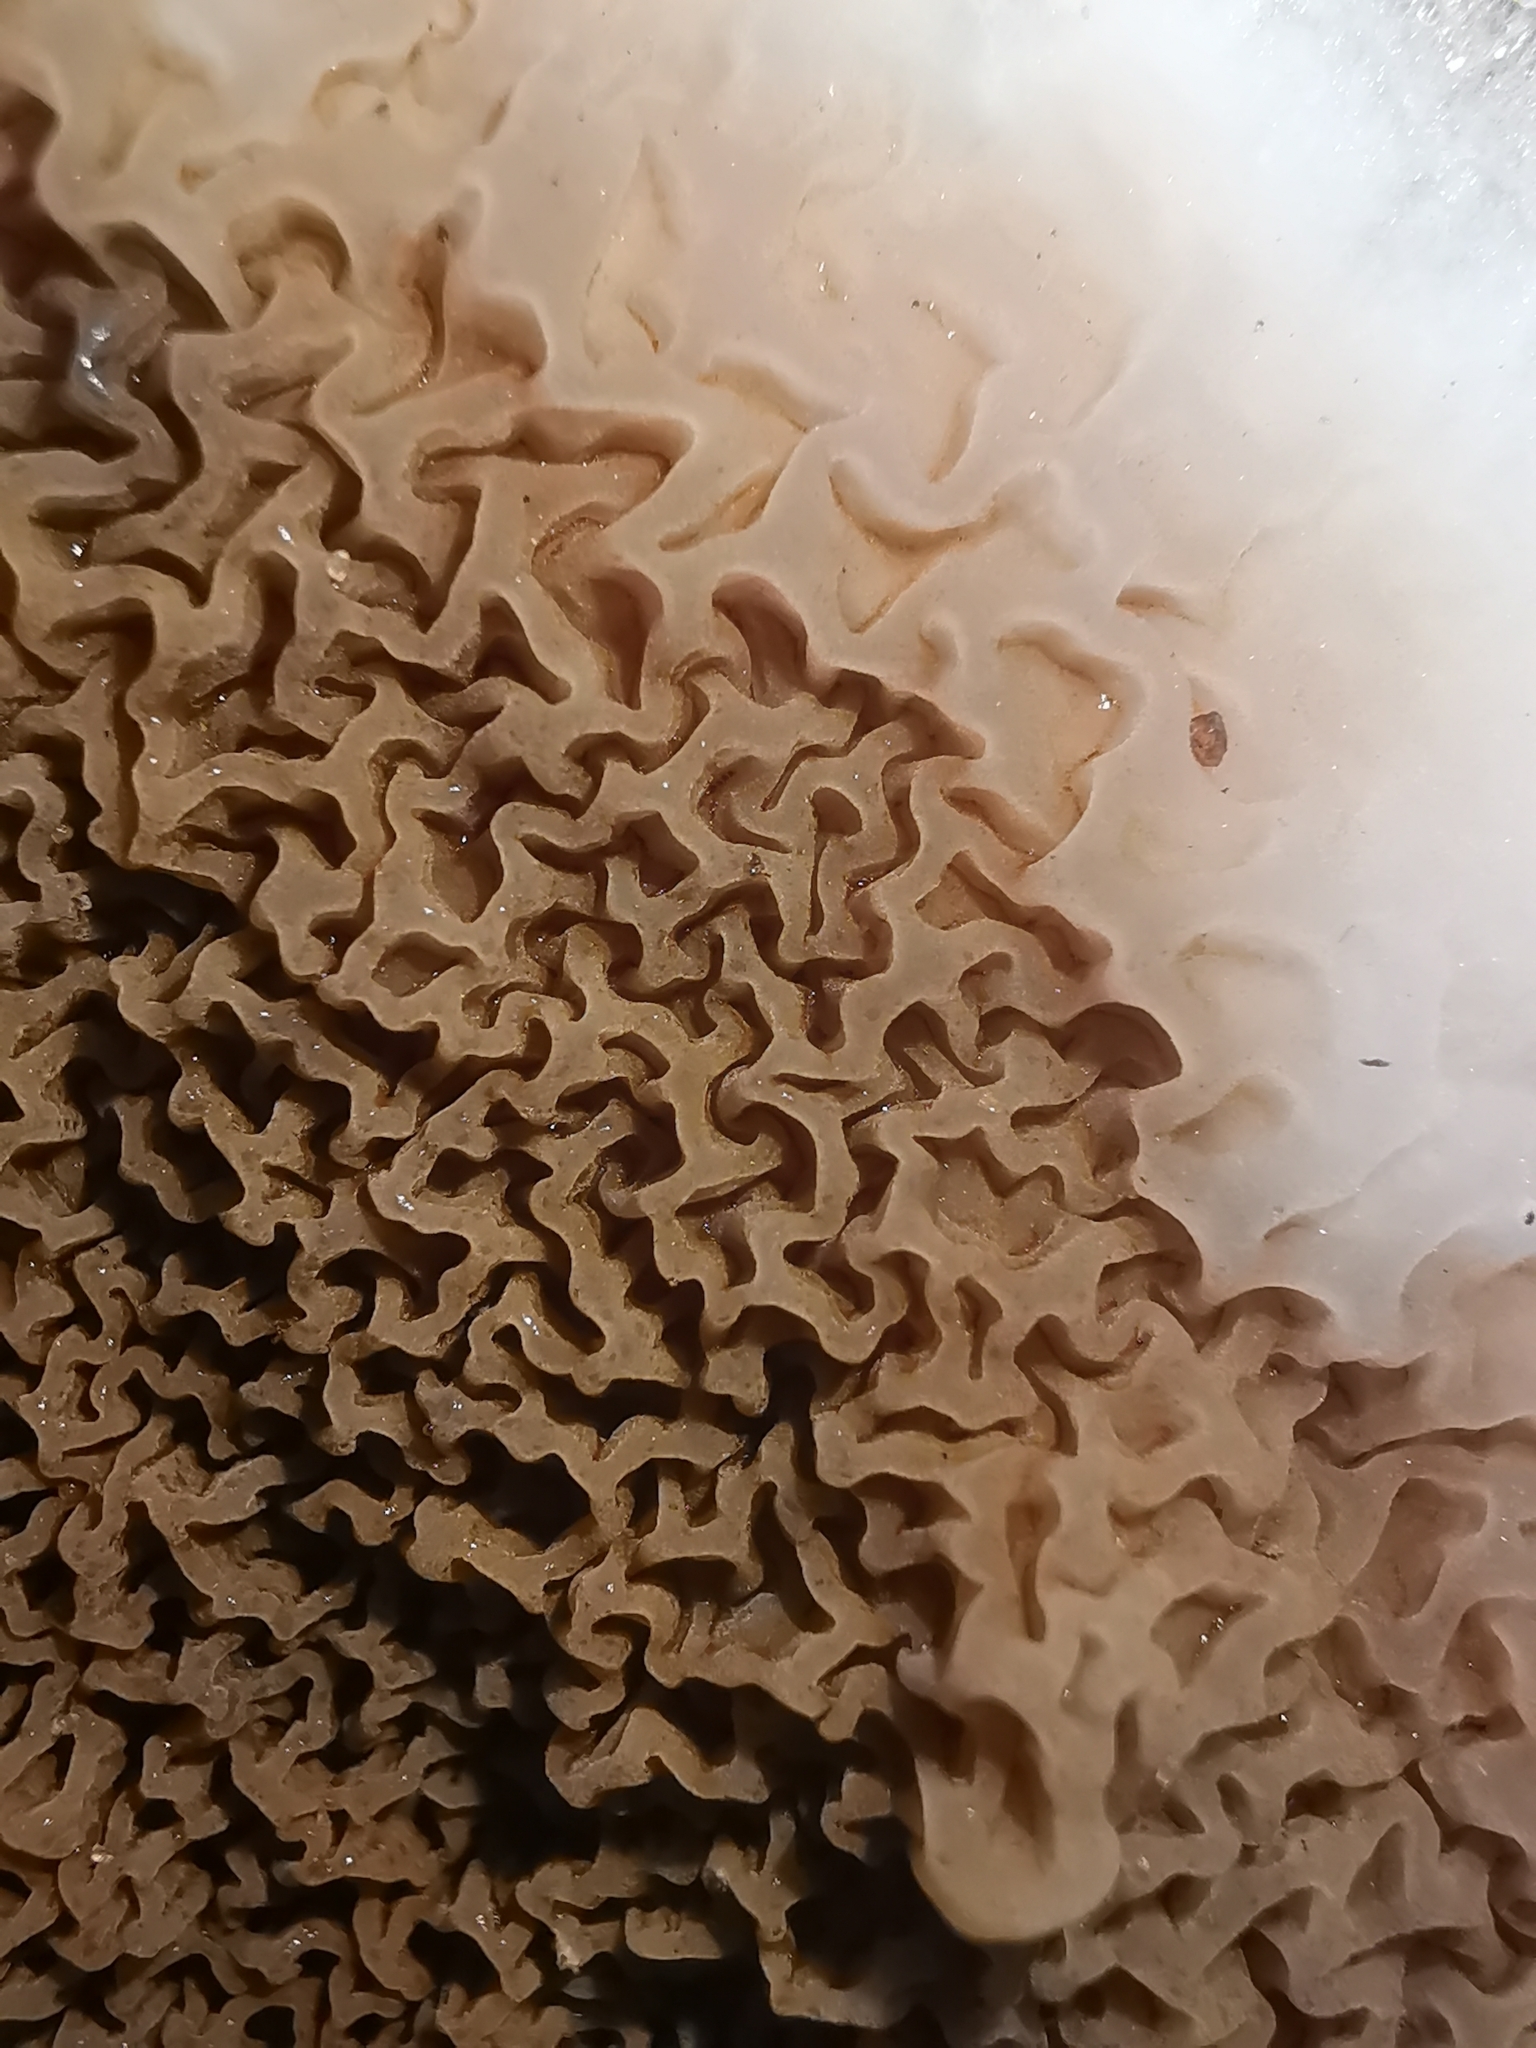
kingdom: Fungi
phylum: Basidiomycota
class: Agaricomycetes
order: Boletales
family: Serpulaceae
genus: Serpula
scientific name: Serpula himantioides
